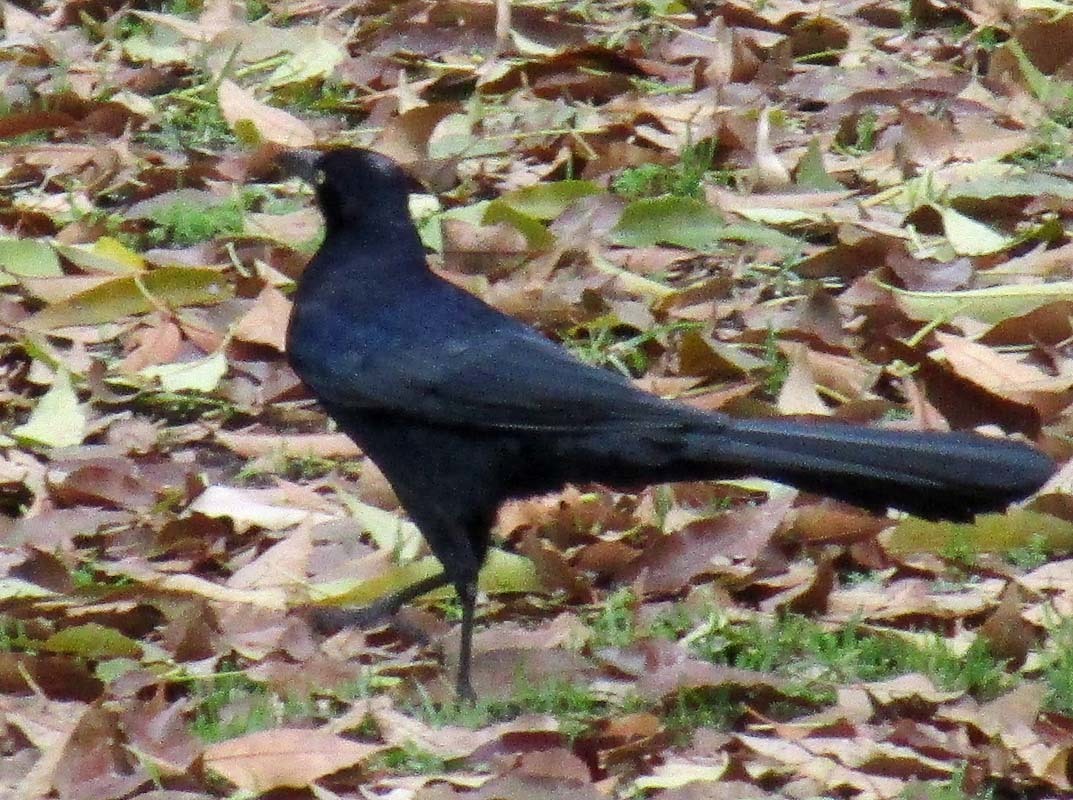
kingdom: Animalia
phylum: Chordata
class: Aves
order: Passeriformes
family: Icteridae
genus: Quiscalus
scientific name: Quiscalus mexicanus
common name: Great-tailed grackle
